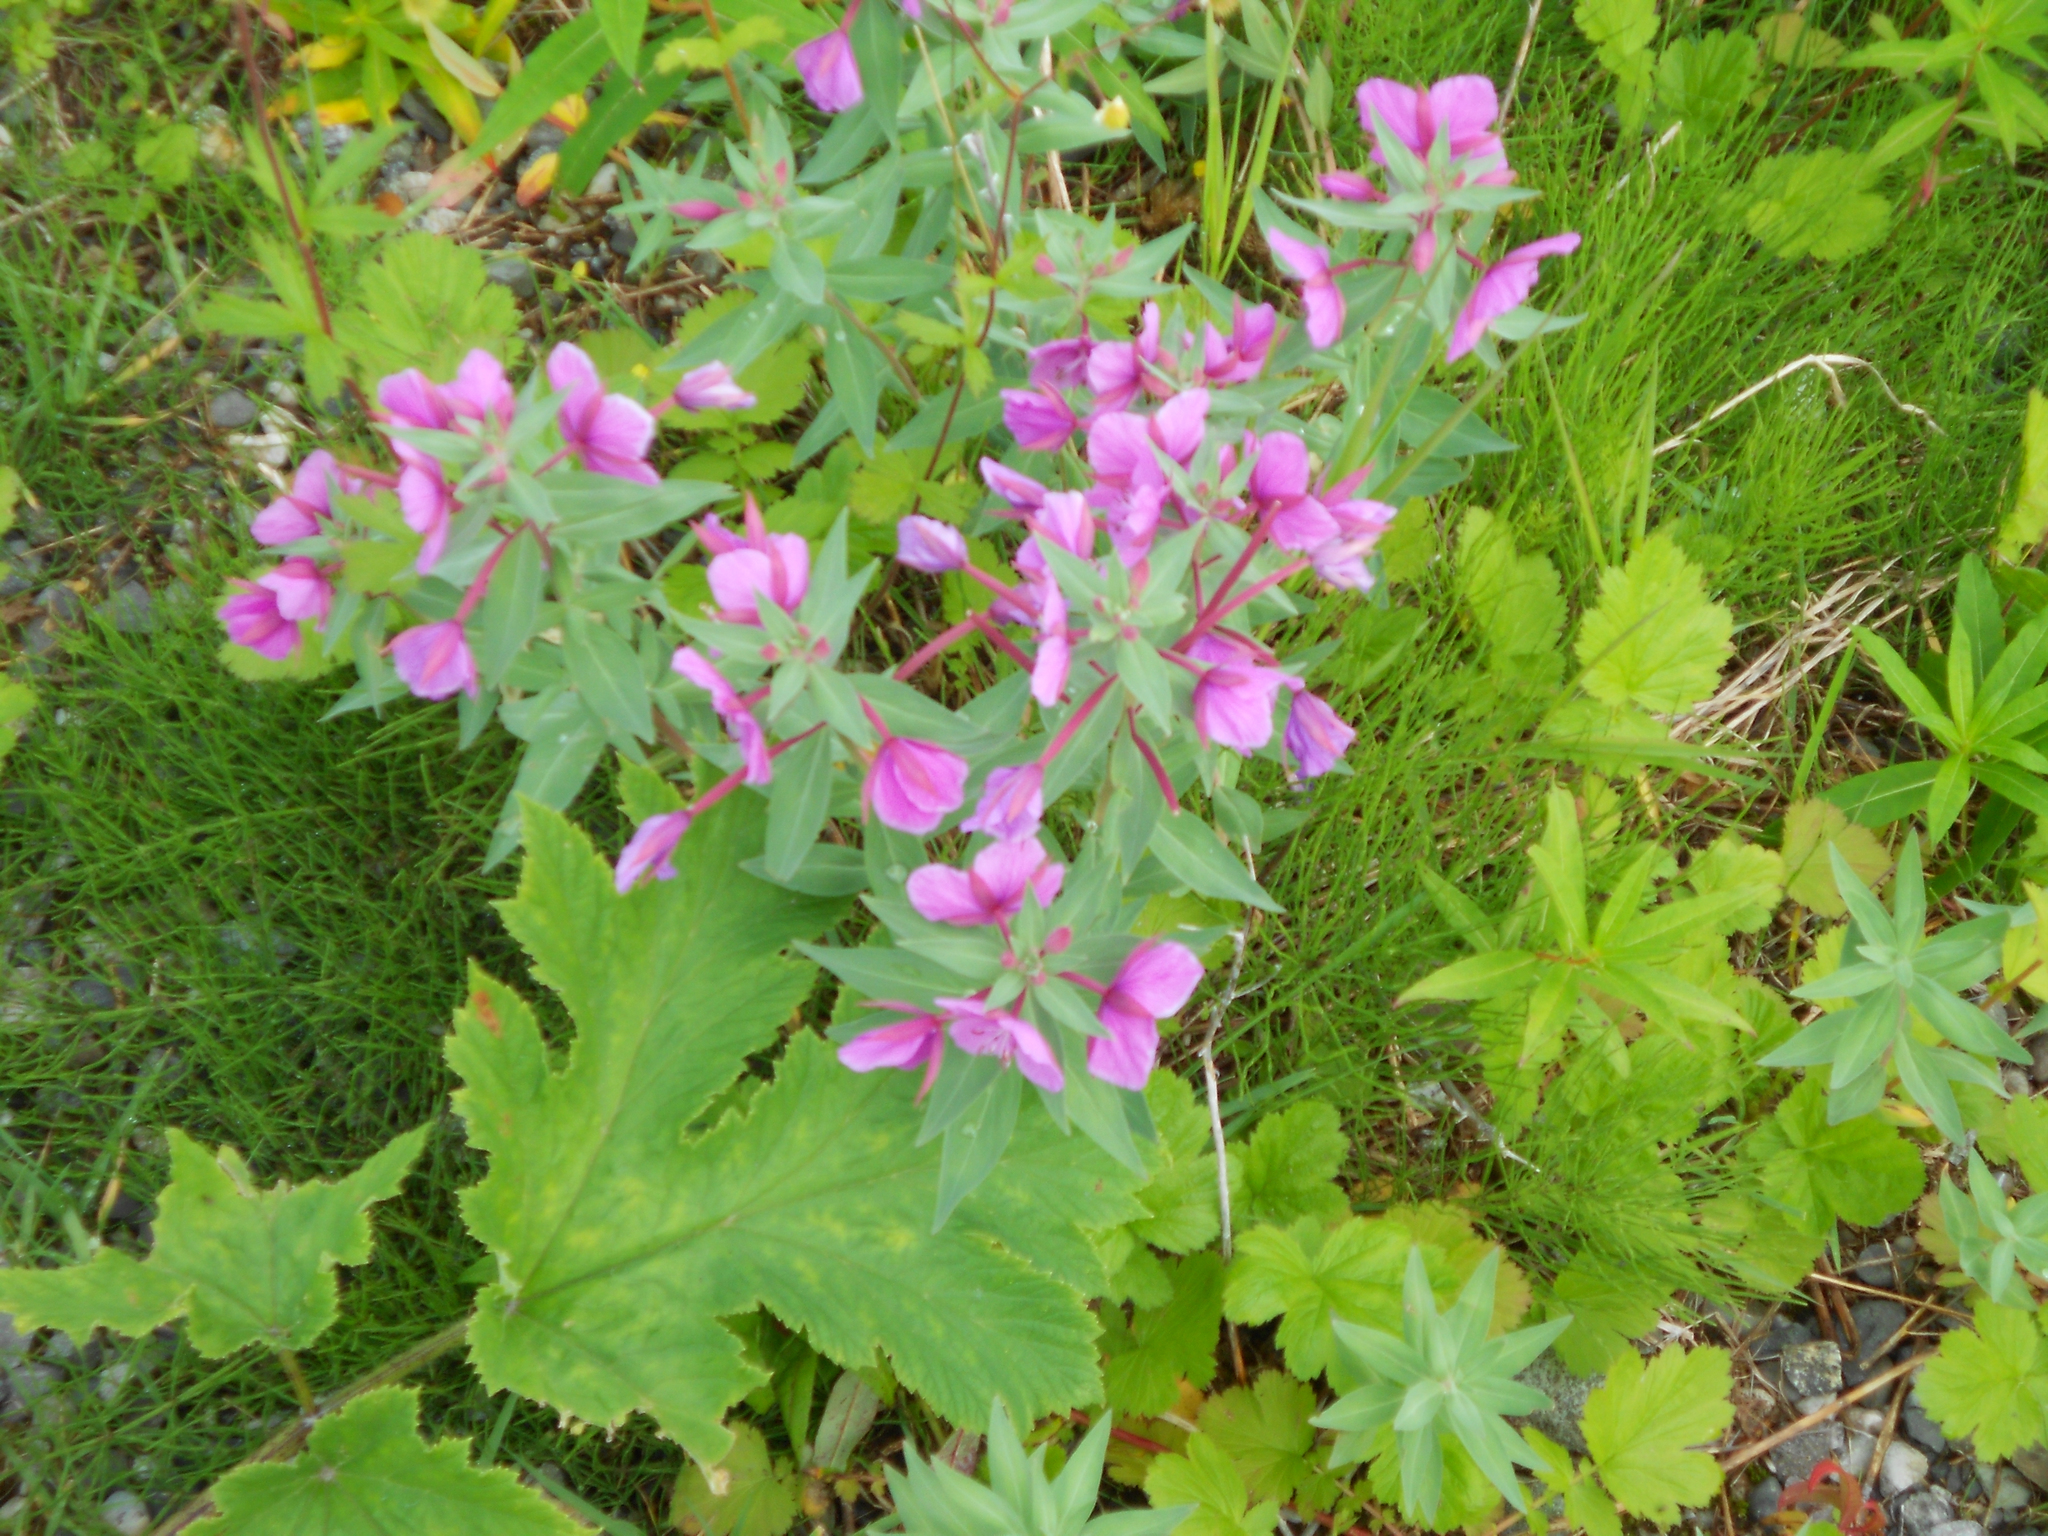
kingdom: Plantae
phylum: Tracheophyta
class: Magnoliopsida
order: Myrtales
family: Onagraceae
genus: Chamaenerion
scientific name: Chamaenerion latifolium
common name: Dwarf fireweed
